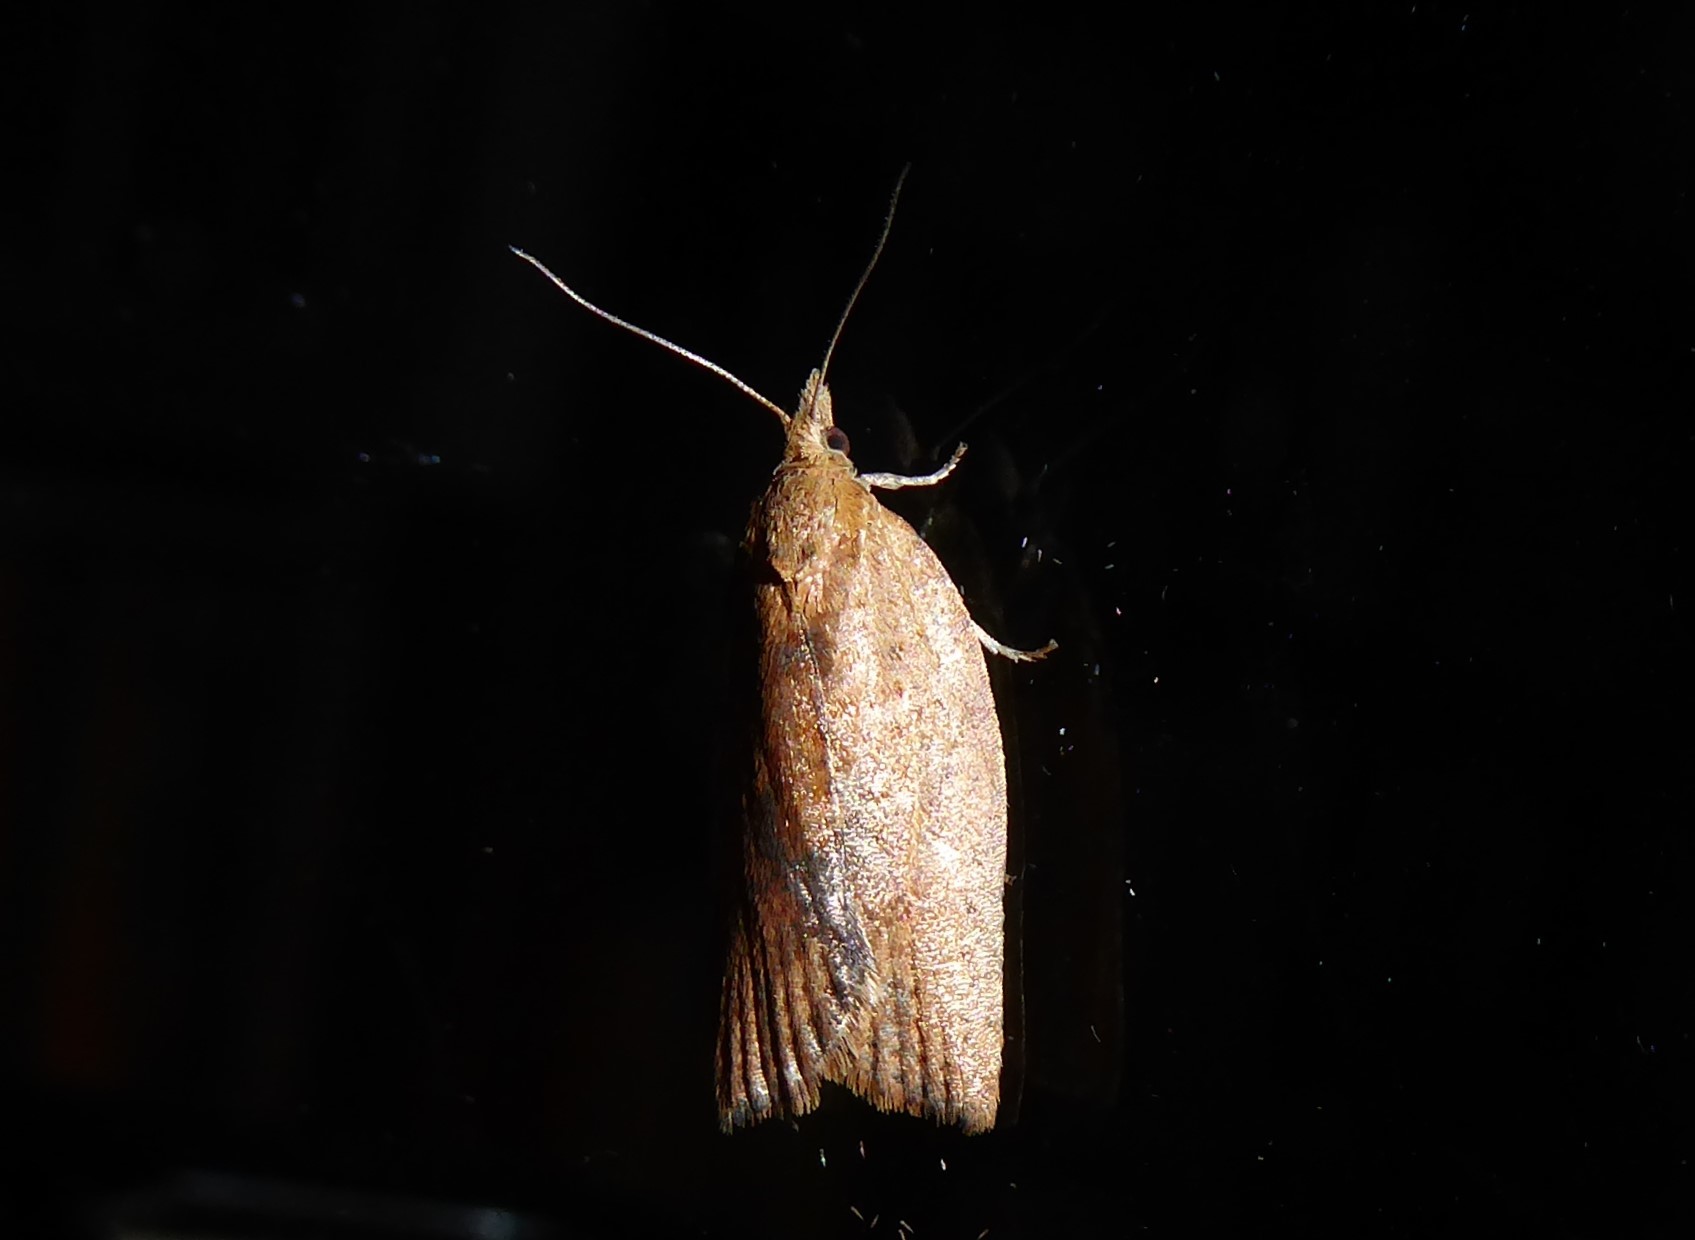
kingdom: Animalia
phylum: Arthropoda
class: Insecta
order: Lepidoptera
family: Tortricidae
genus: Epiphyas
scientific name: Epiphyas postvittana
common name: Light brown apple moth
